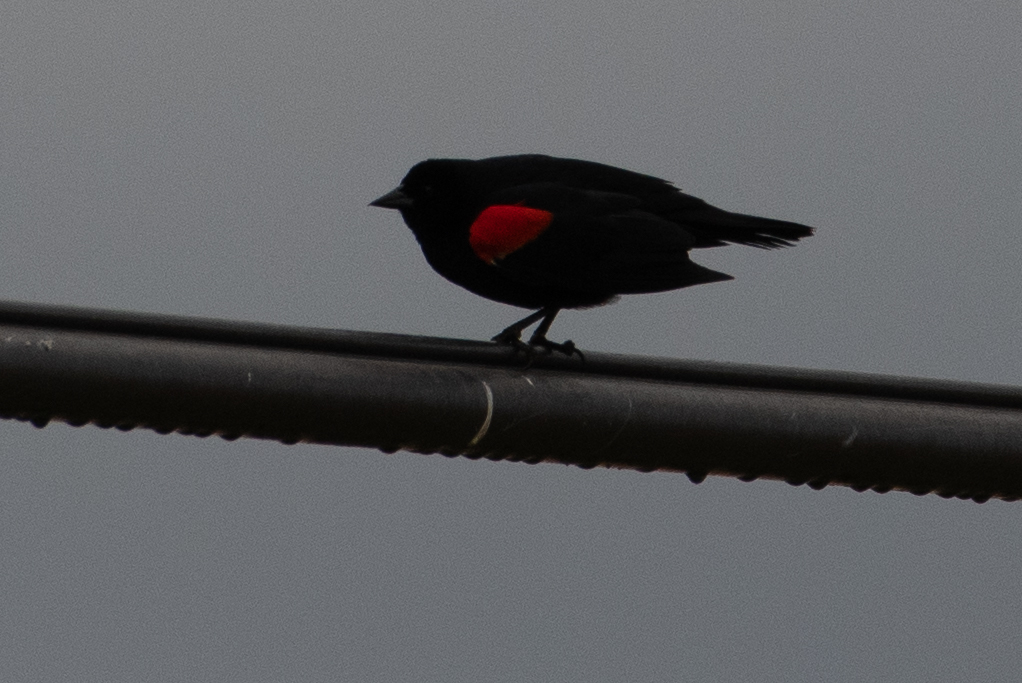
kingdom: Animalia
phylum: Chordata
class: Aves
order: Passeriformes
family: Icteridae
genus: Agelaius
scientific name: Agelaius phoeniceus
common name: Red-winged blackbird
